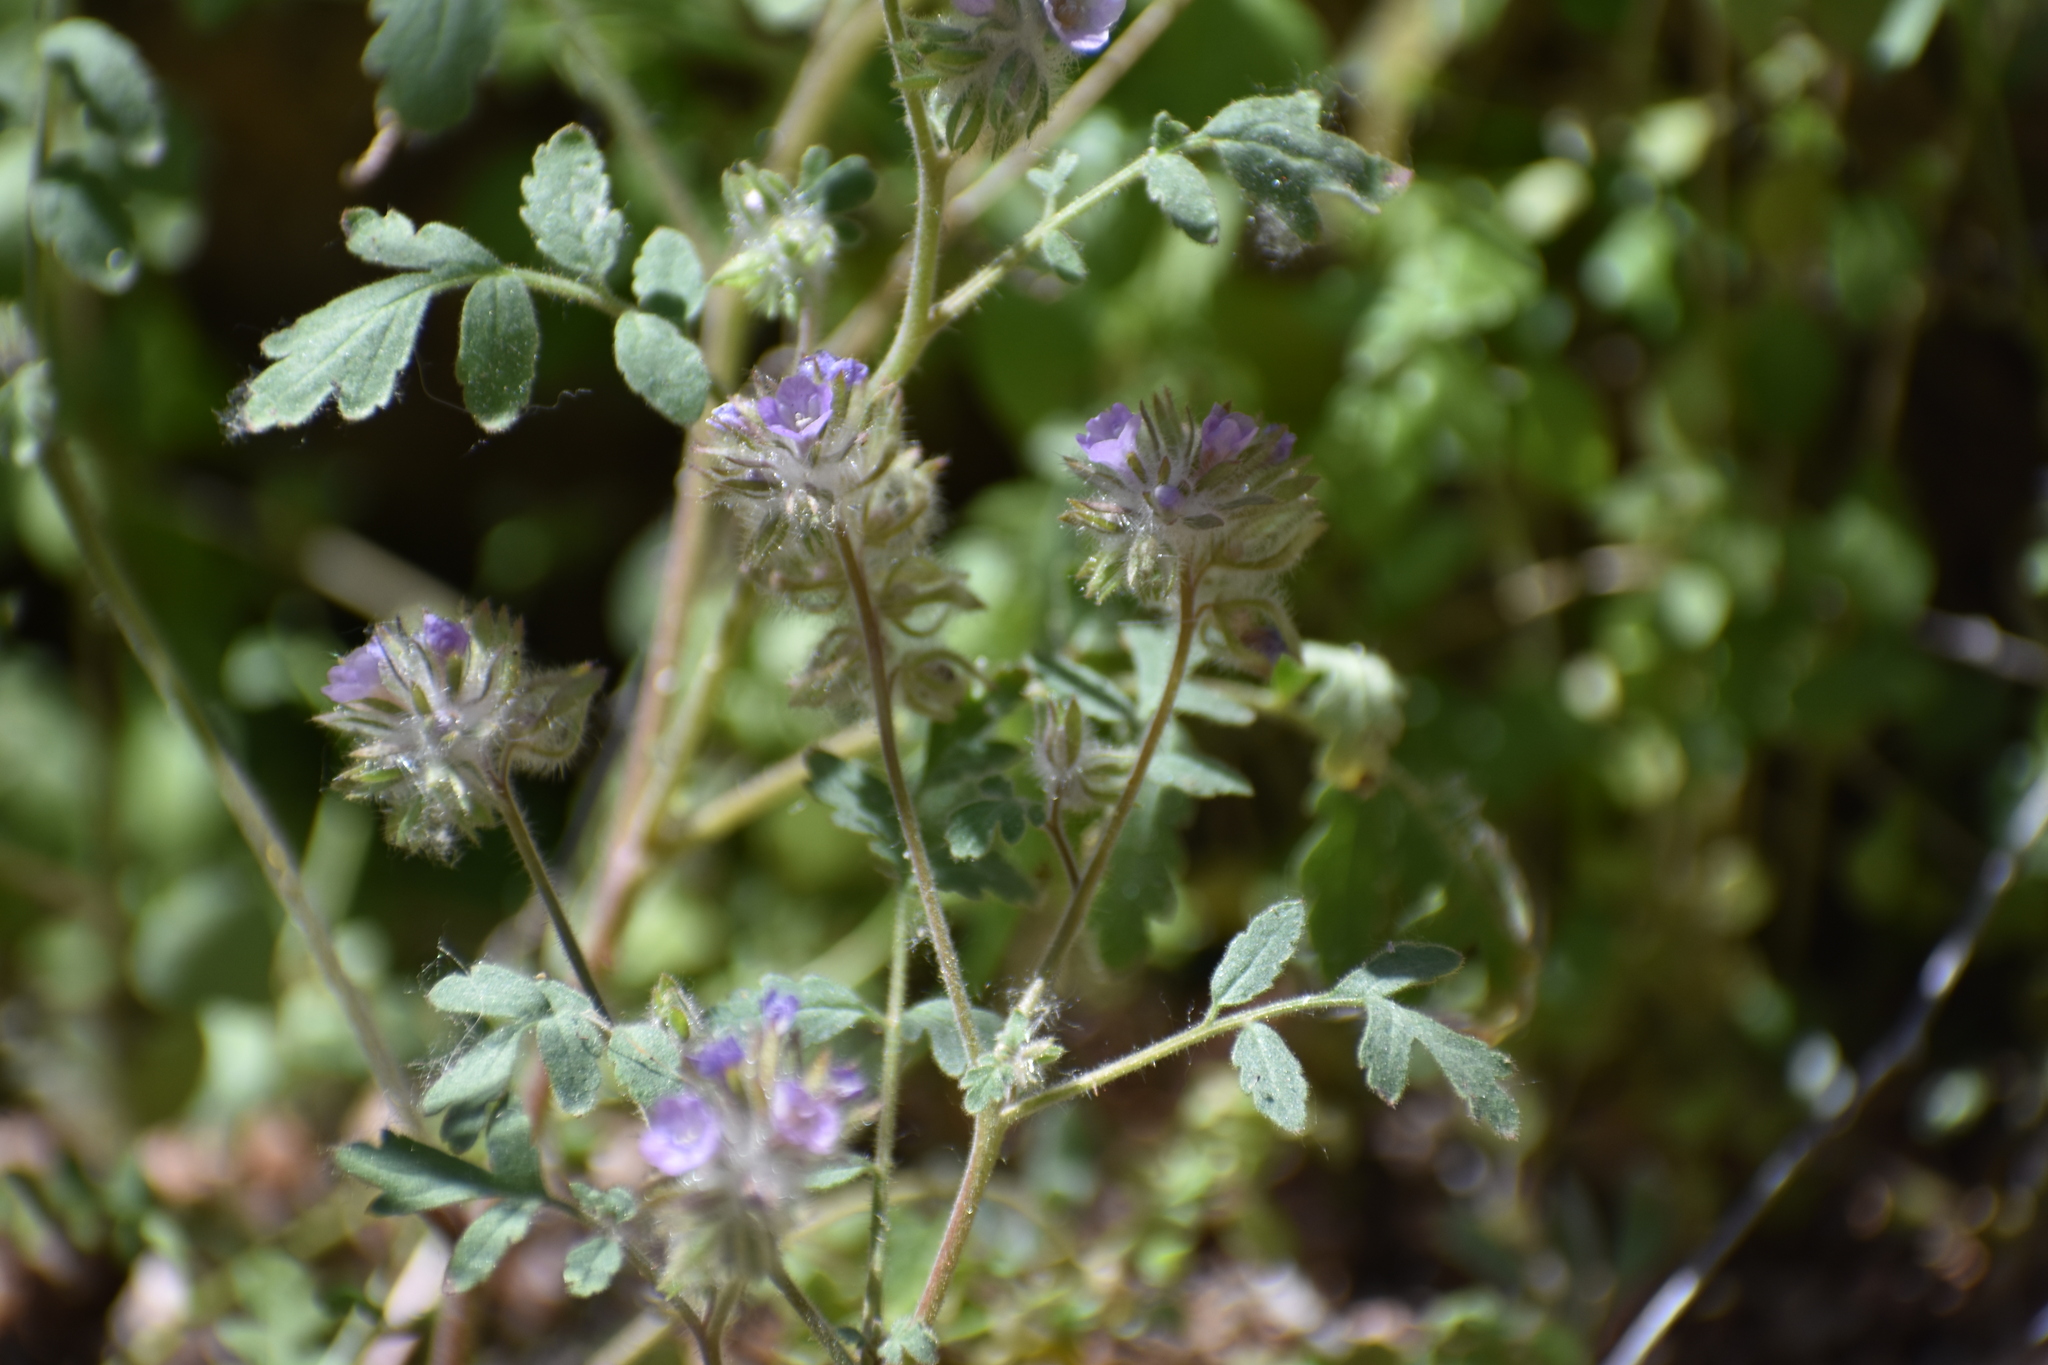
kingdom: Plantae
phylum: Tracheophyta
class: Magnoliopsida
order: Boraginales
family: Hydrophyllaceae
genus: Phacelia
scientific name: Phacelia cryptantha
